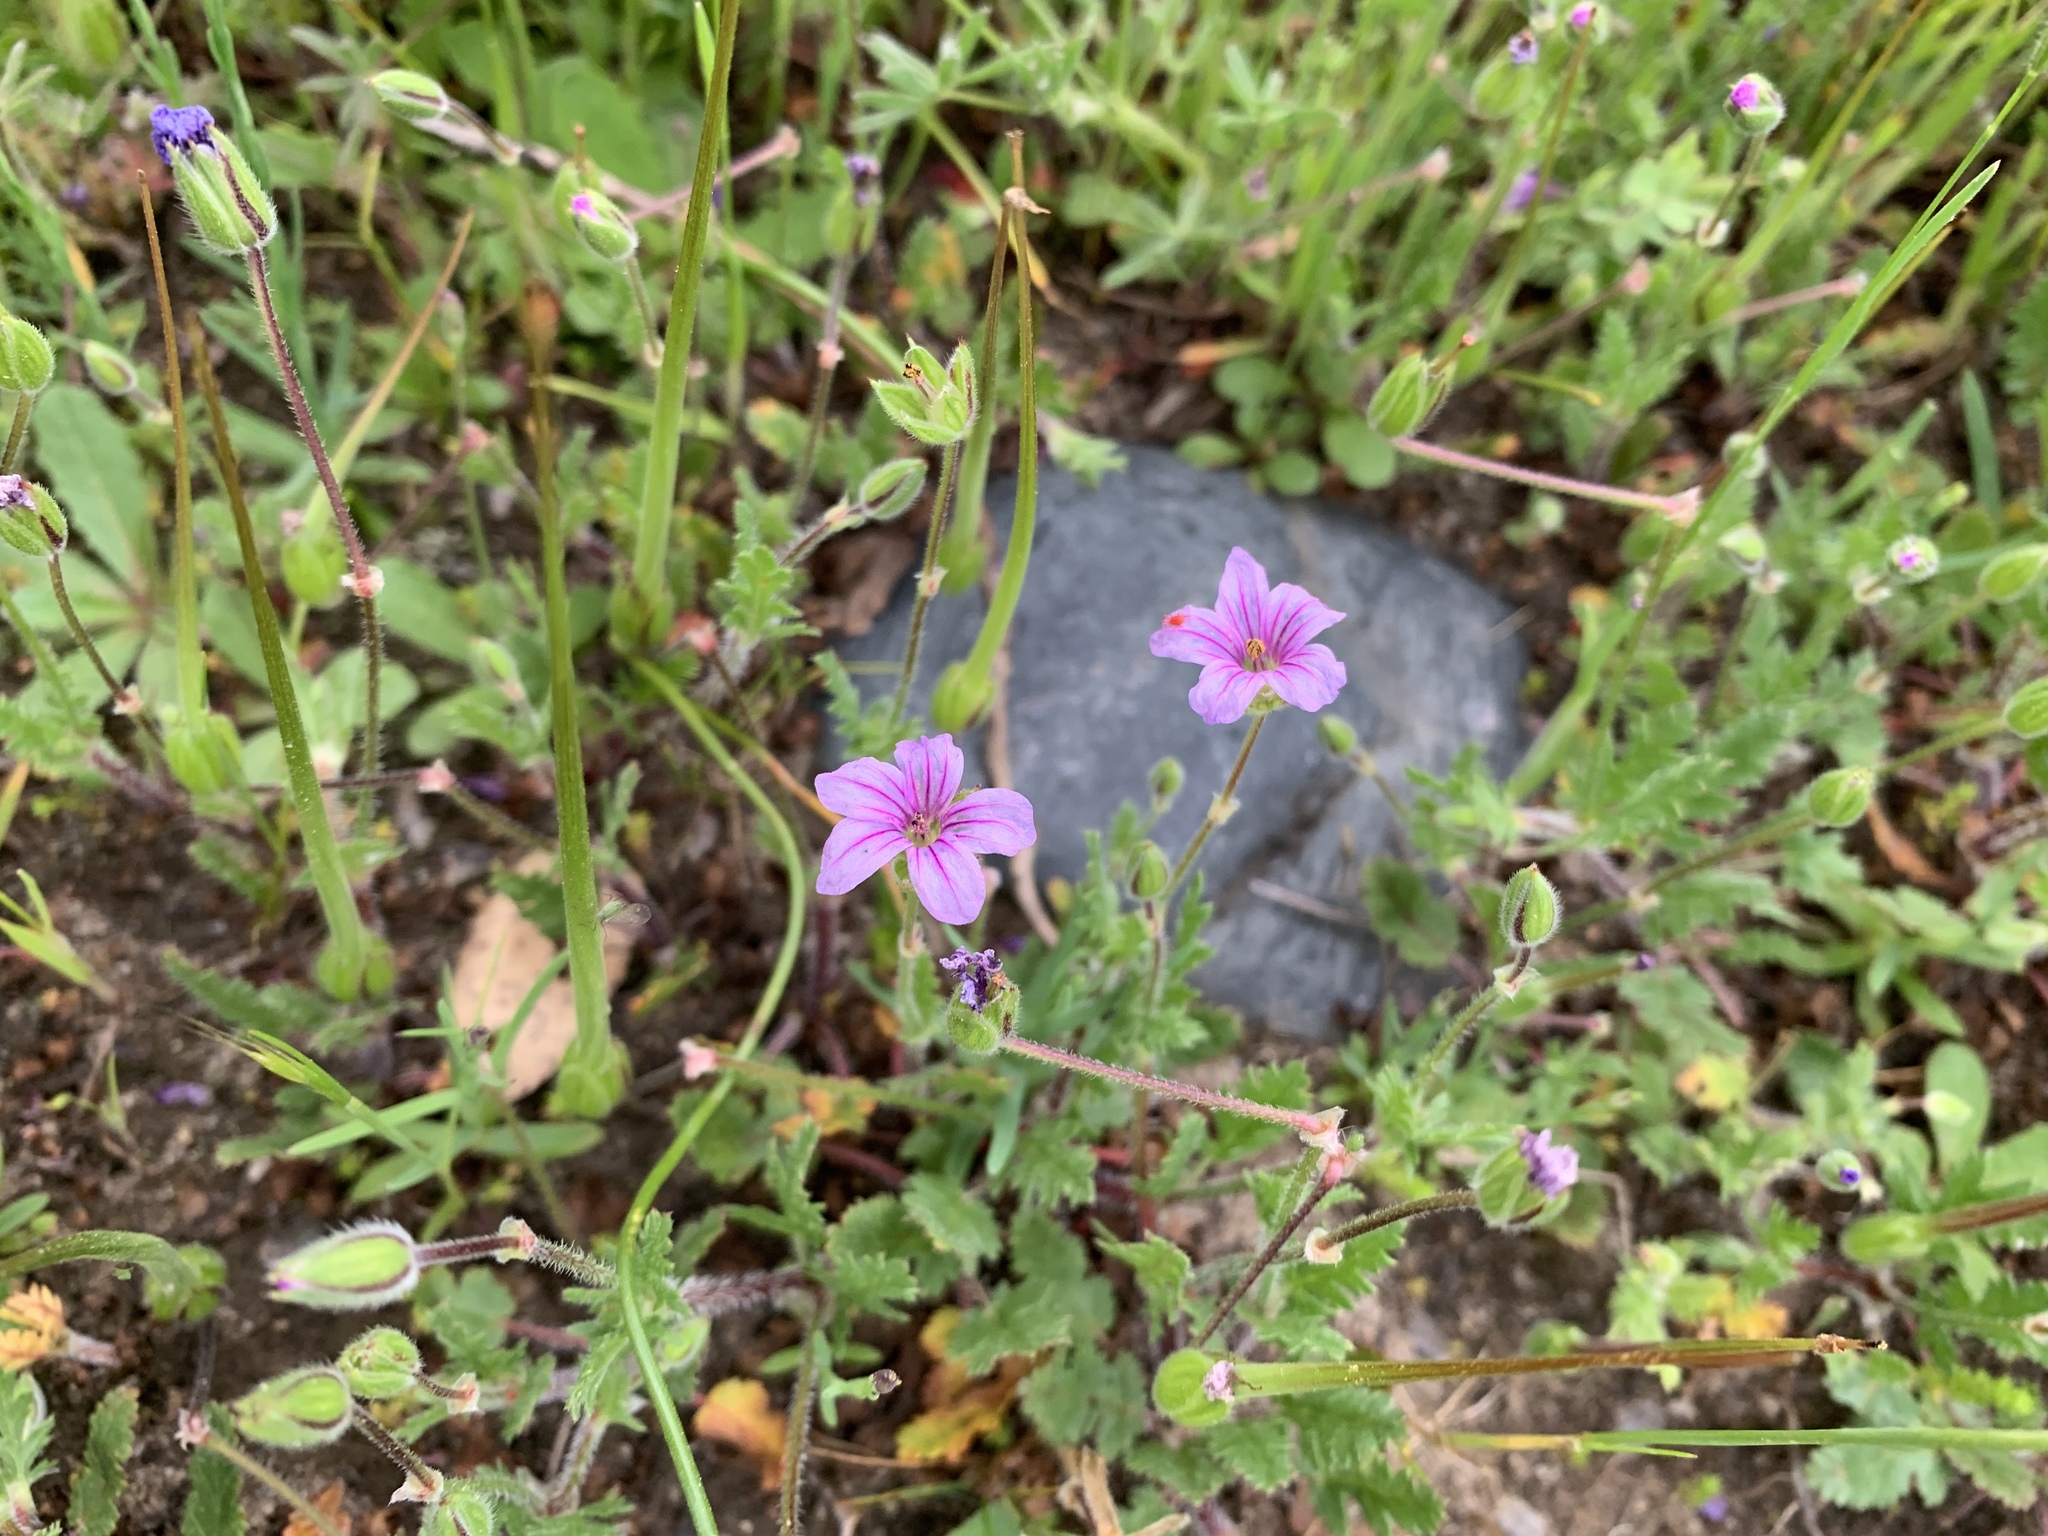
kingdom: Plantae
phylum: Tracheophyta
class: Magnoliopsida
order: Geraniales
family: Geraniaceae
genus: Erodium
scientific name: Erodium botrys
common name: Mediterranean stork's-bill
